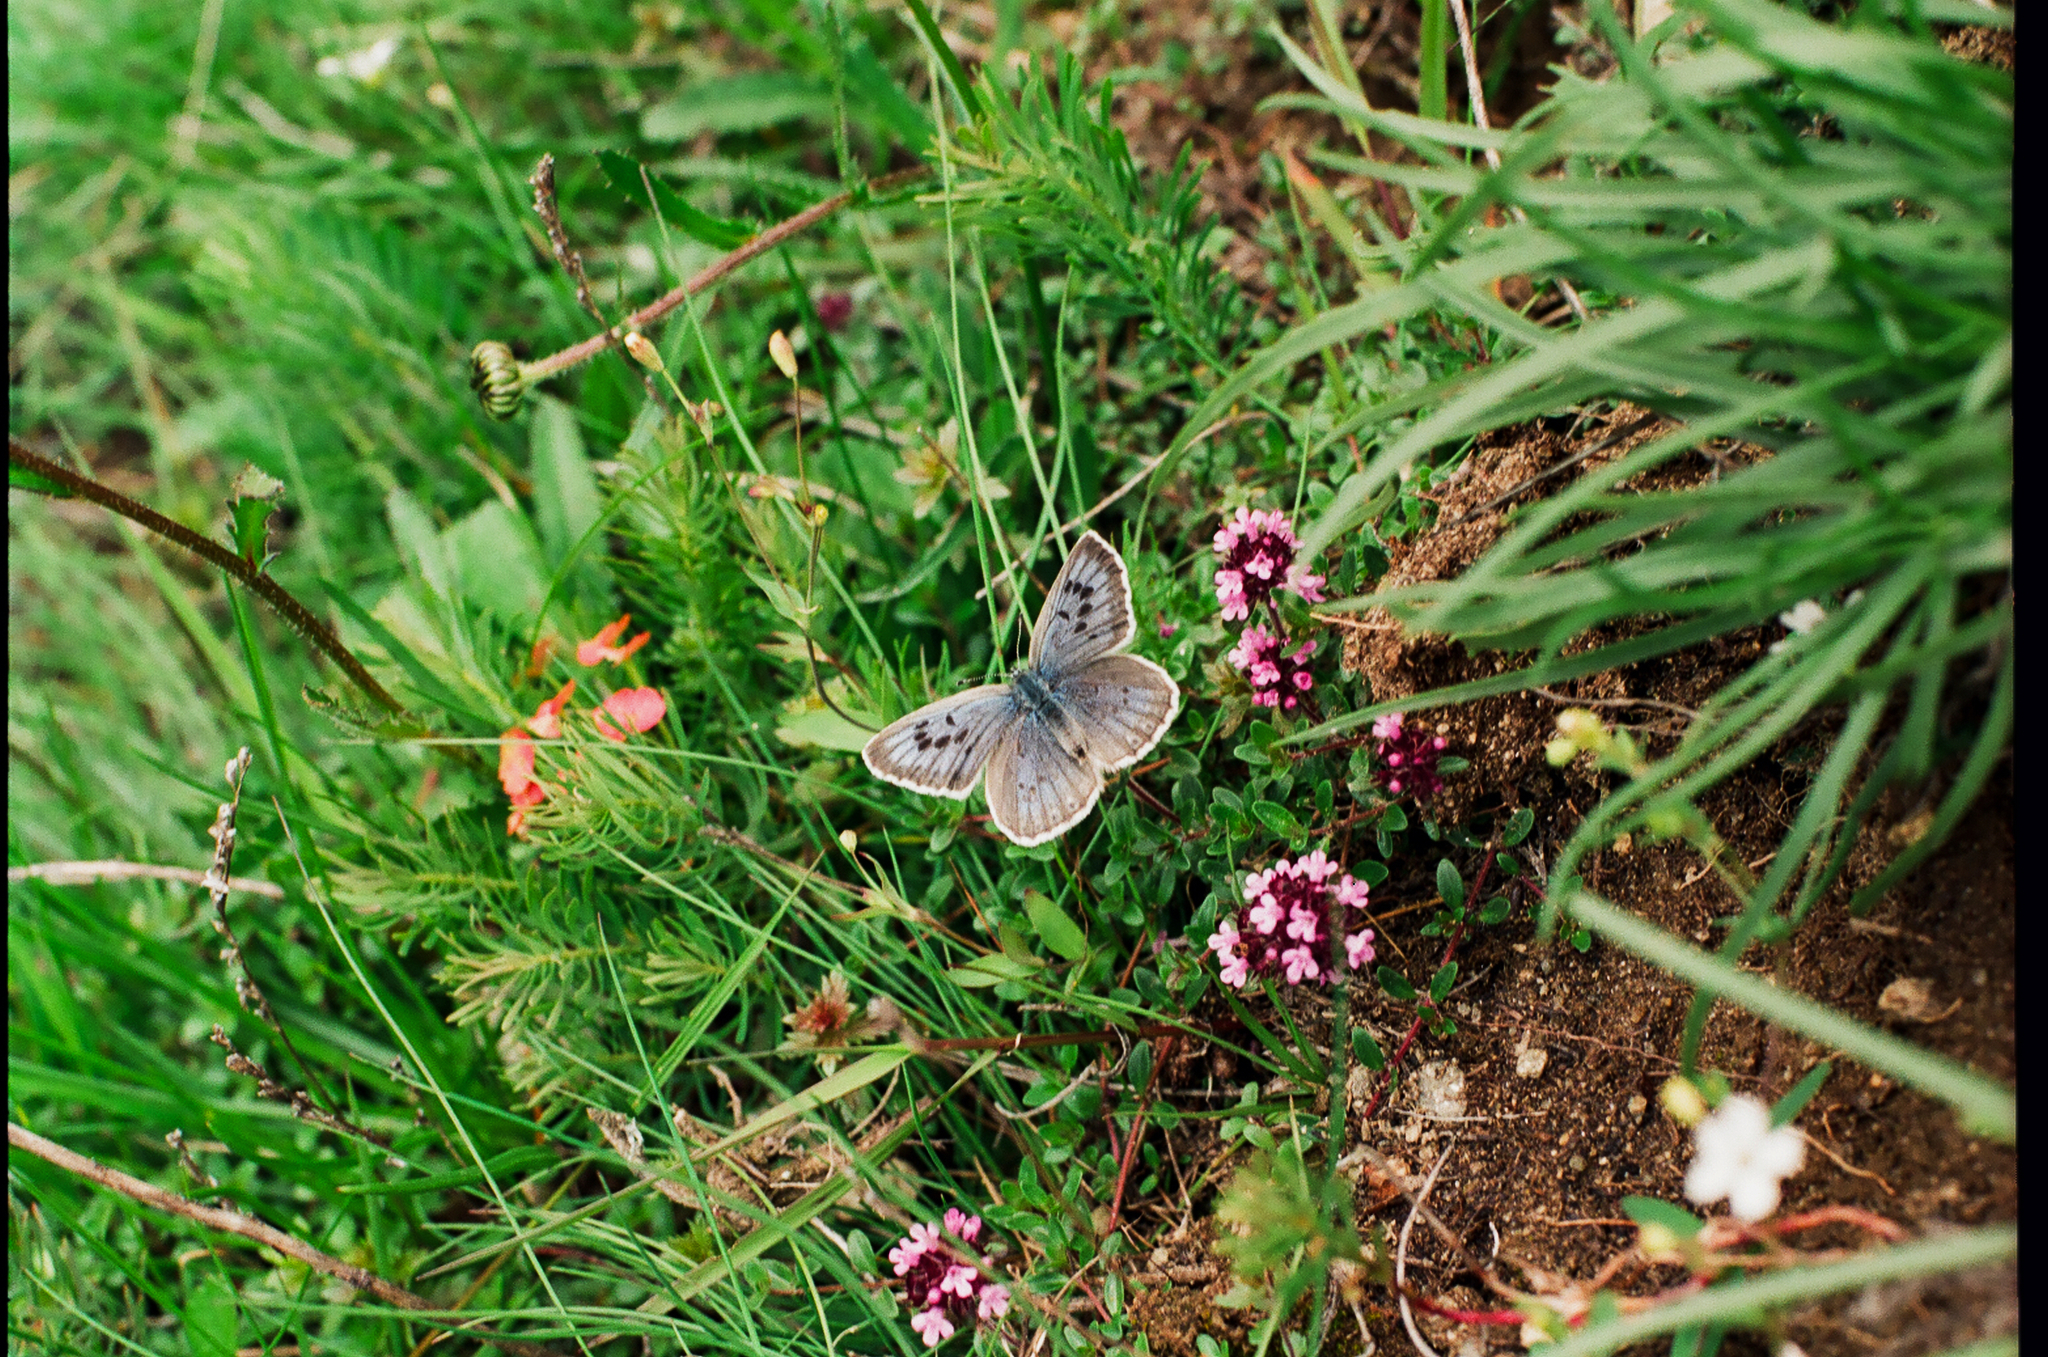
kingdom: Animalia
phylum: Arthropoda
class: Insecta
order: Lepidoptera
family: Lycaenidae
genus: Maculinea
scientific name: Maculinea arion
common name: Large blue
